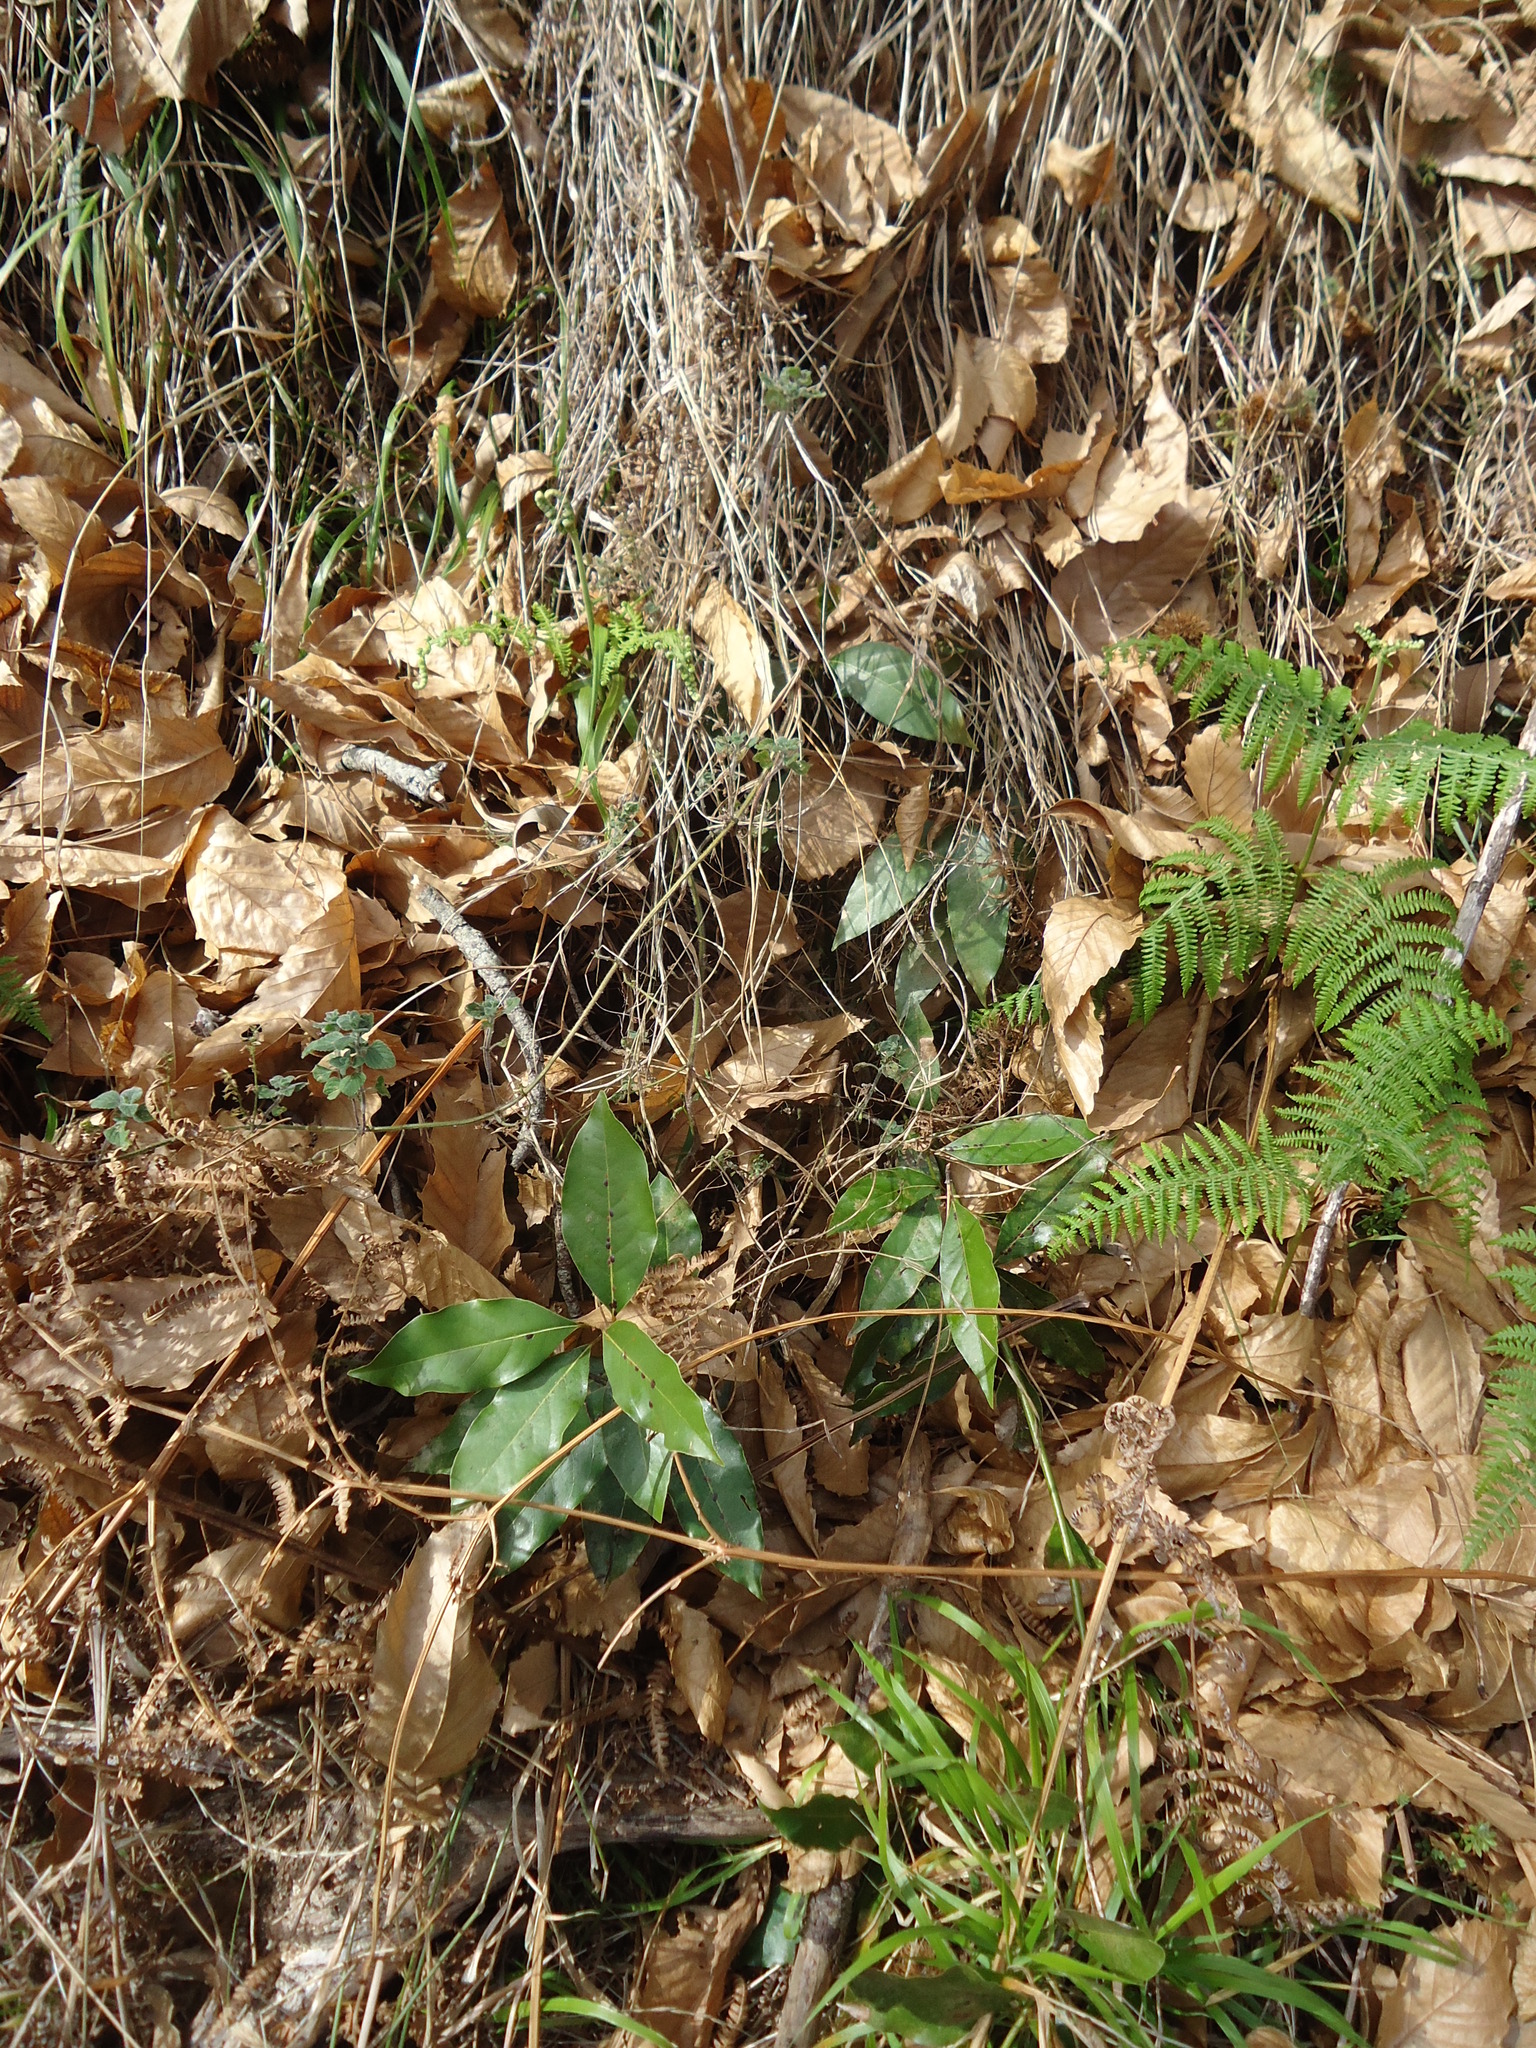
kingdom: Plantae
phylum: Tracheophyta
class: Magnoliopsida
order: Laurales
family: Lauraceae
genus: Laurus
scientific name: Laurus novocanariensis
